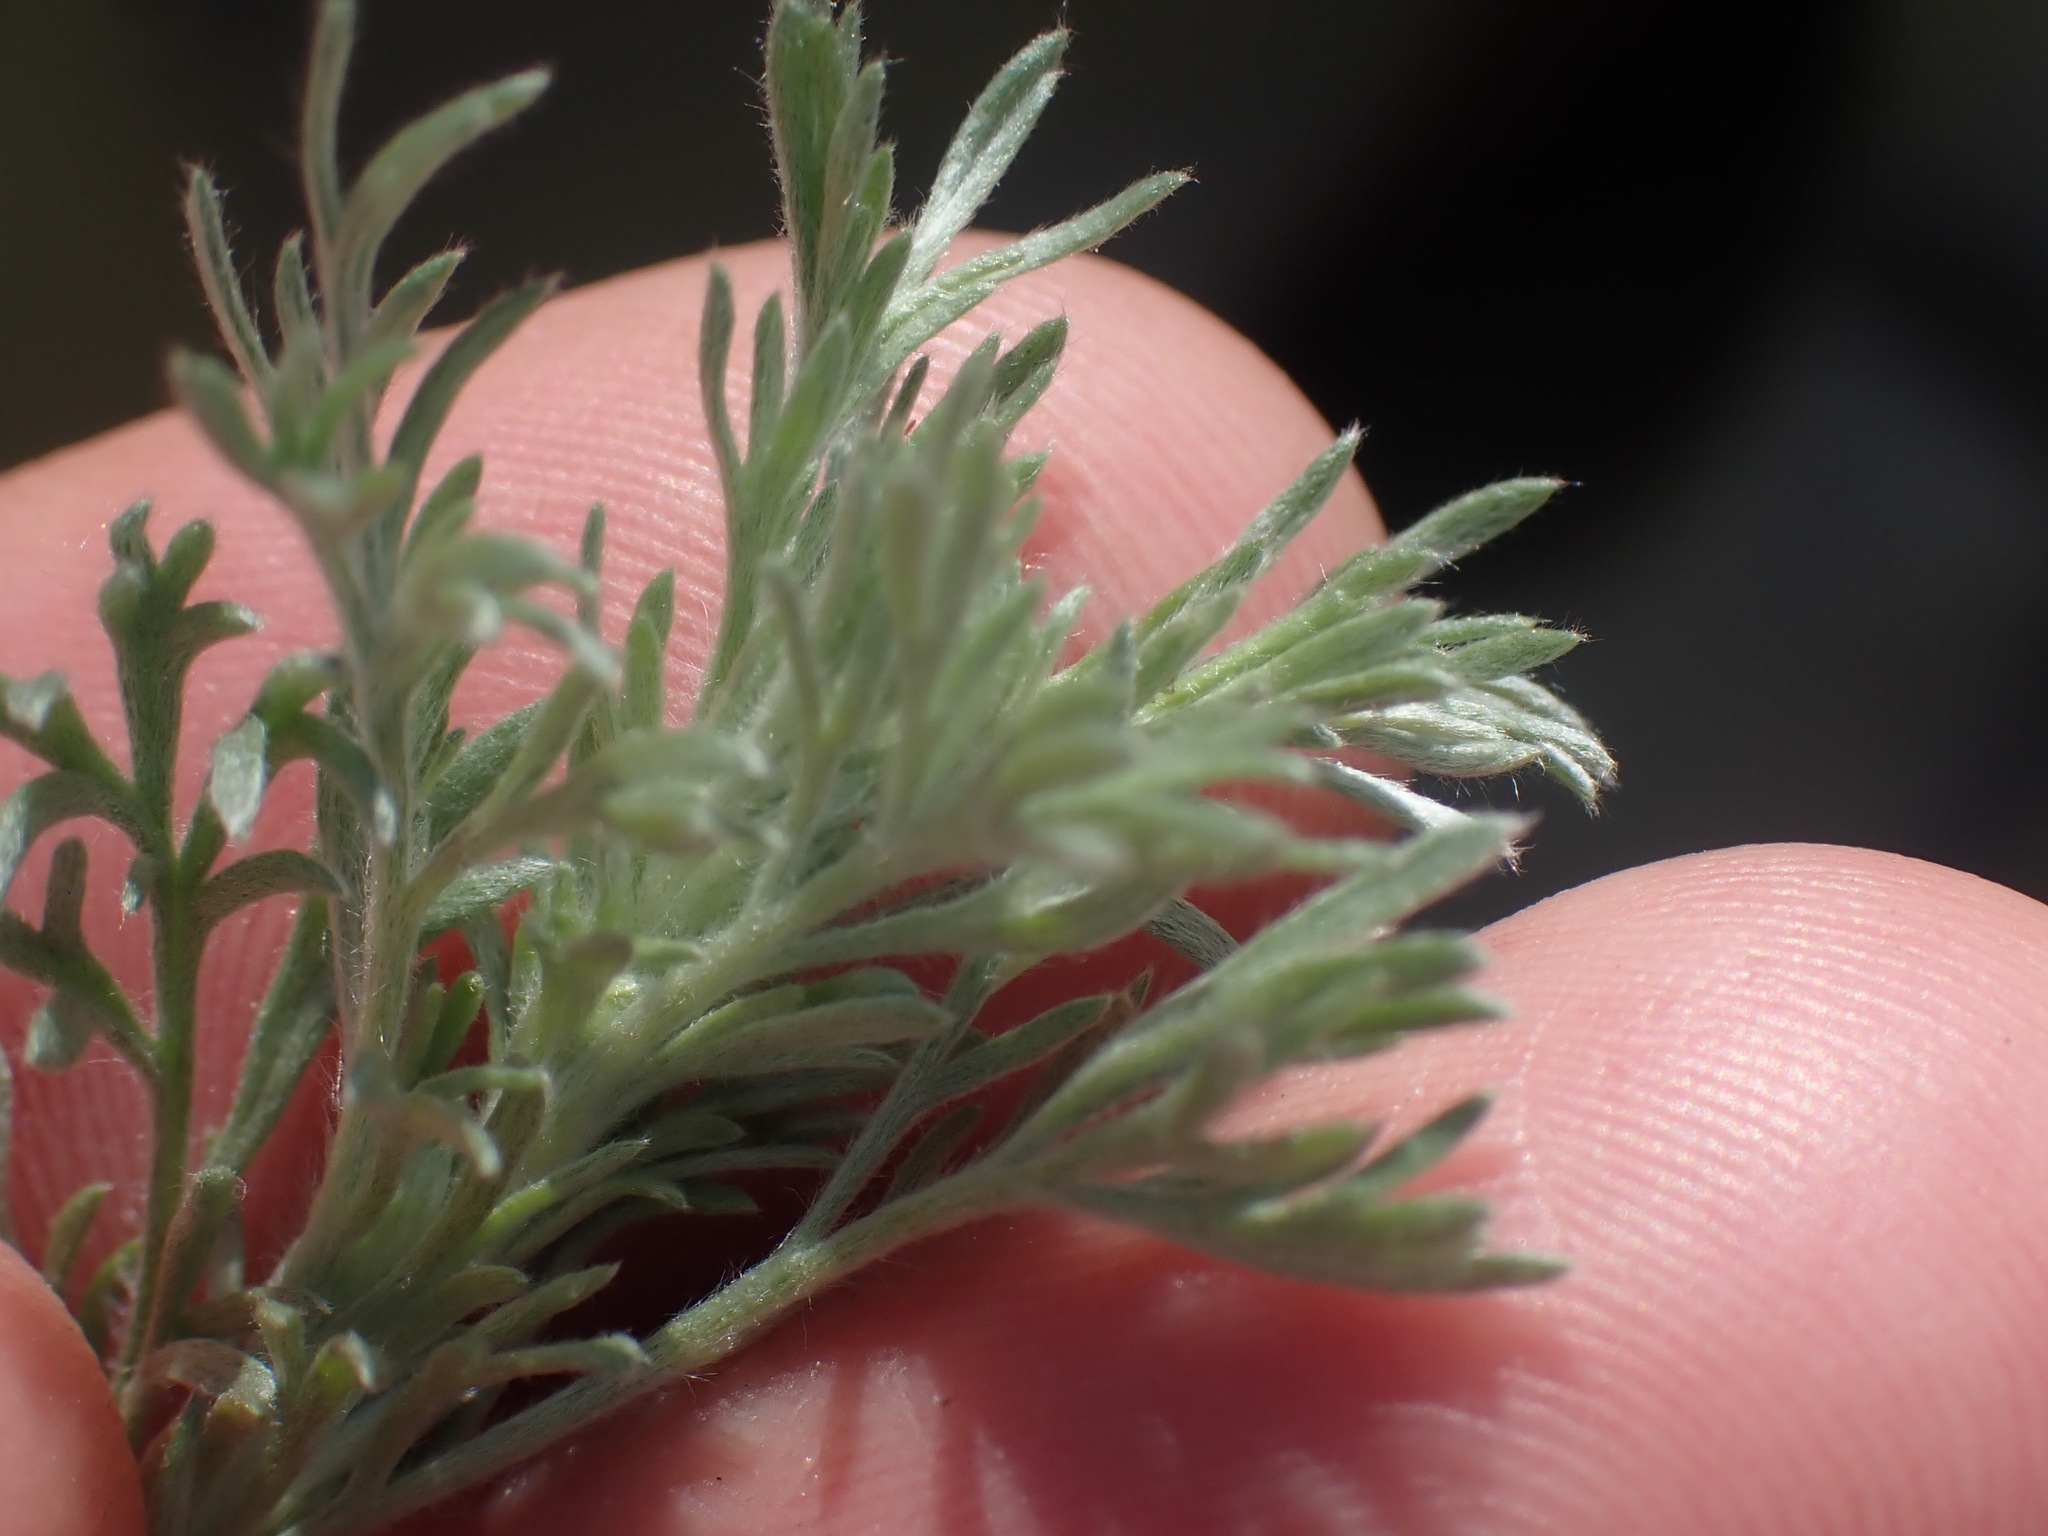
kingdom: Plantae
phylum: Tracheophyta
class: Magnoliopsida
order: Asterales
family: Asteraceae
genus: Artemisia
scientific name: Artemisia frigida
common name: Prairie sagewort
